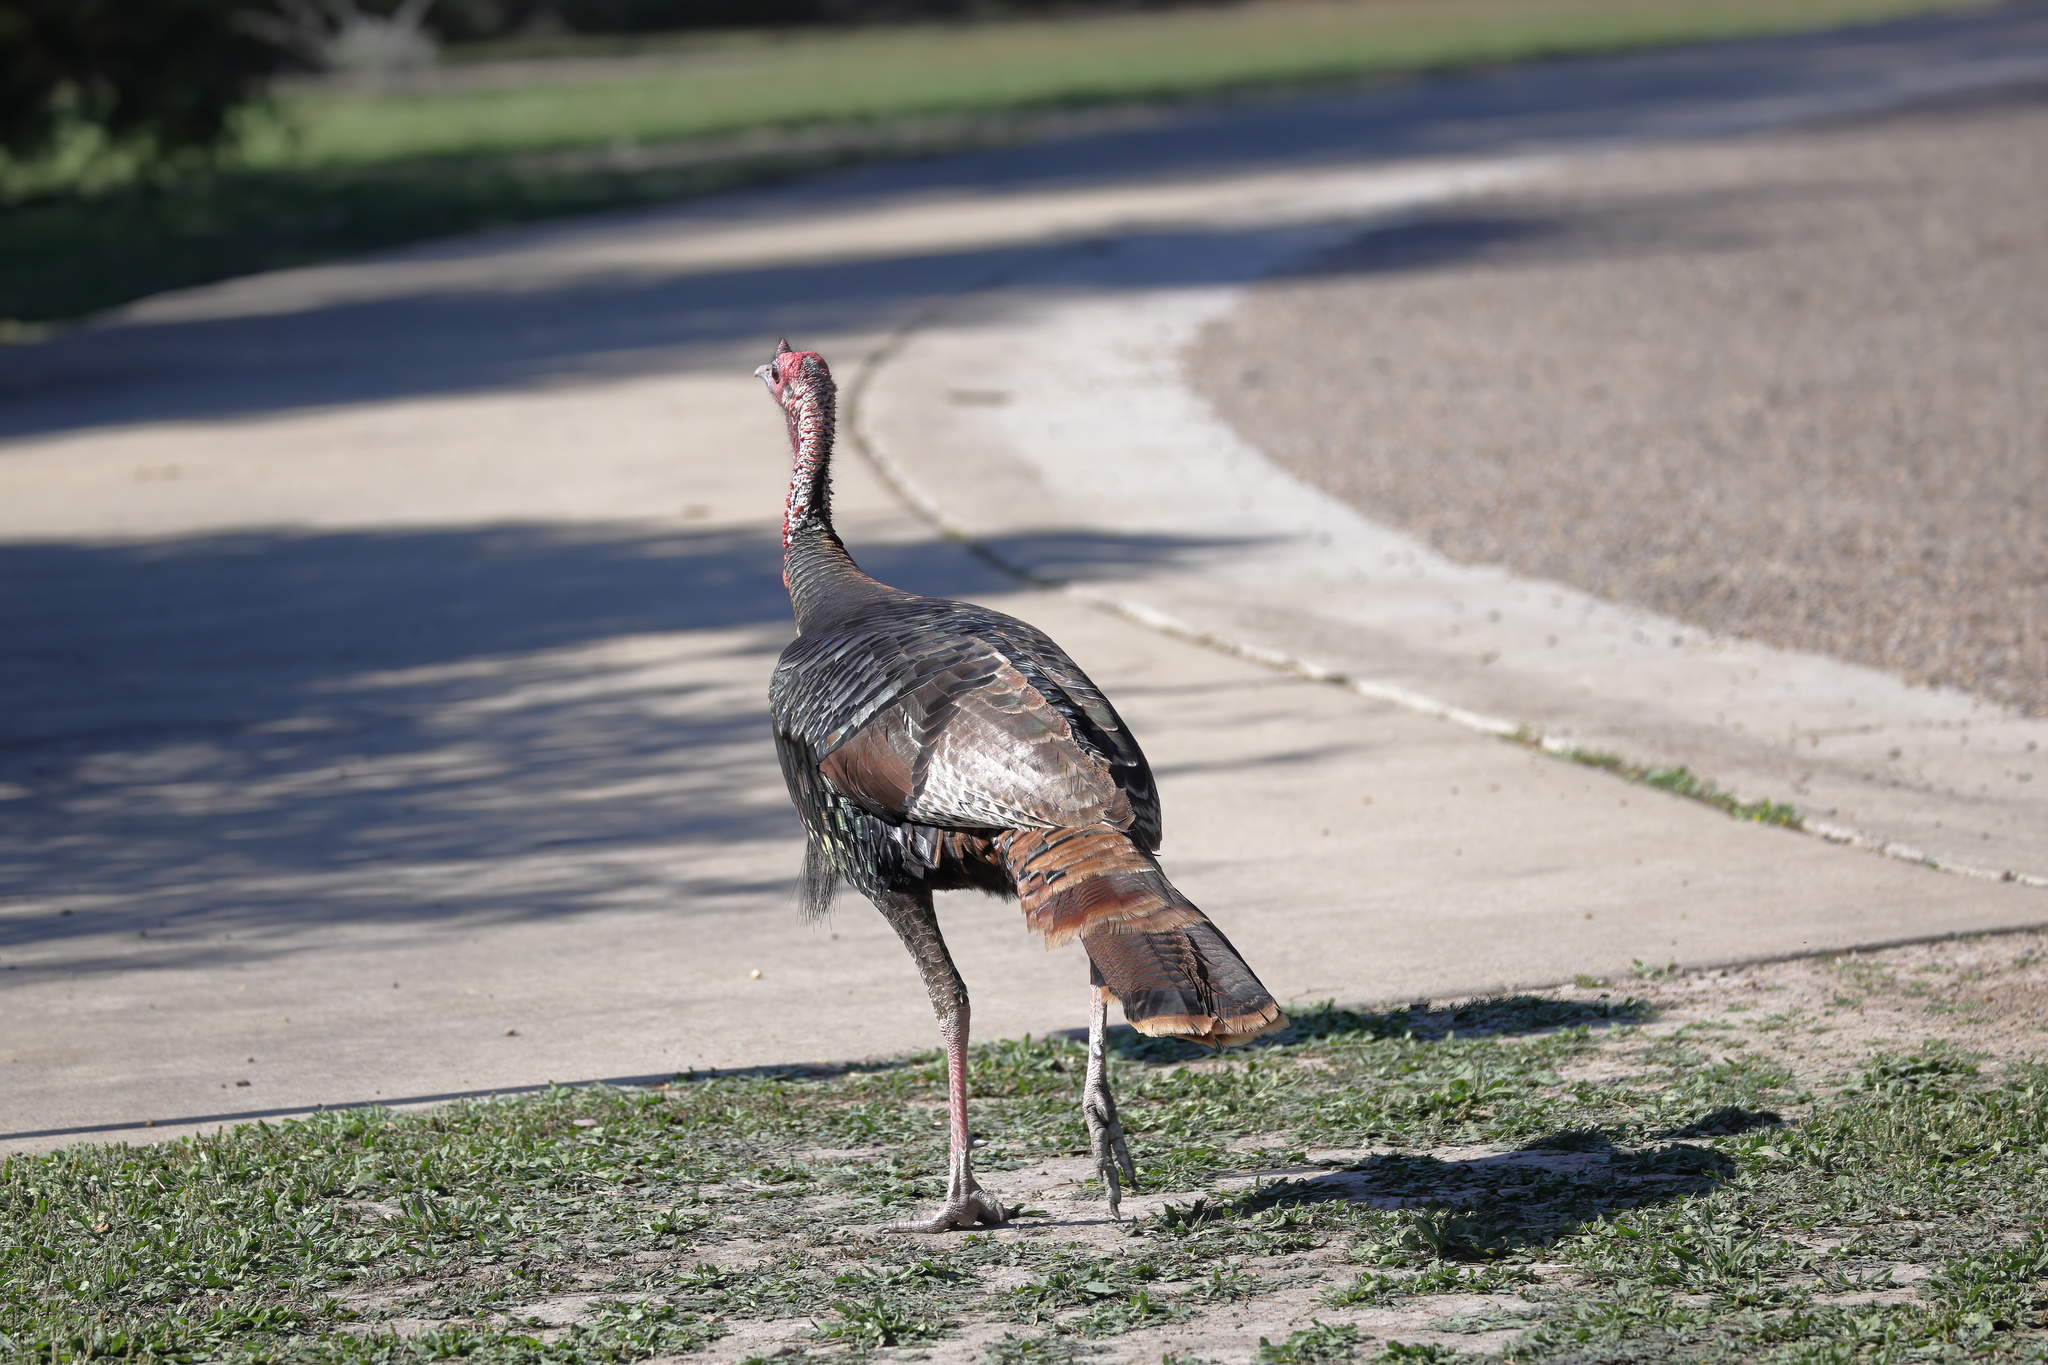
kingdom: Animalia
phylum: Chordata
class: Aves
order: Galliformes
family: Phasianidae
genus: Meleagris
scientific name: Meleagris gallopavo
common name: Wild turkey
